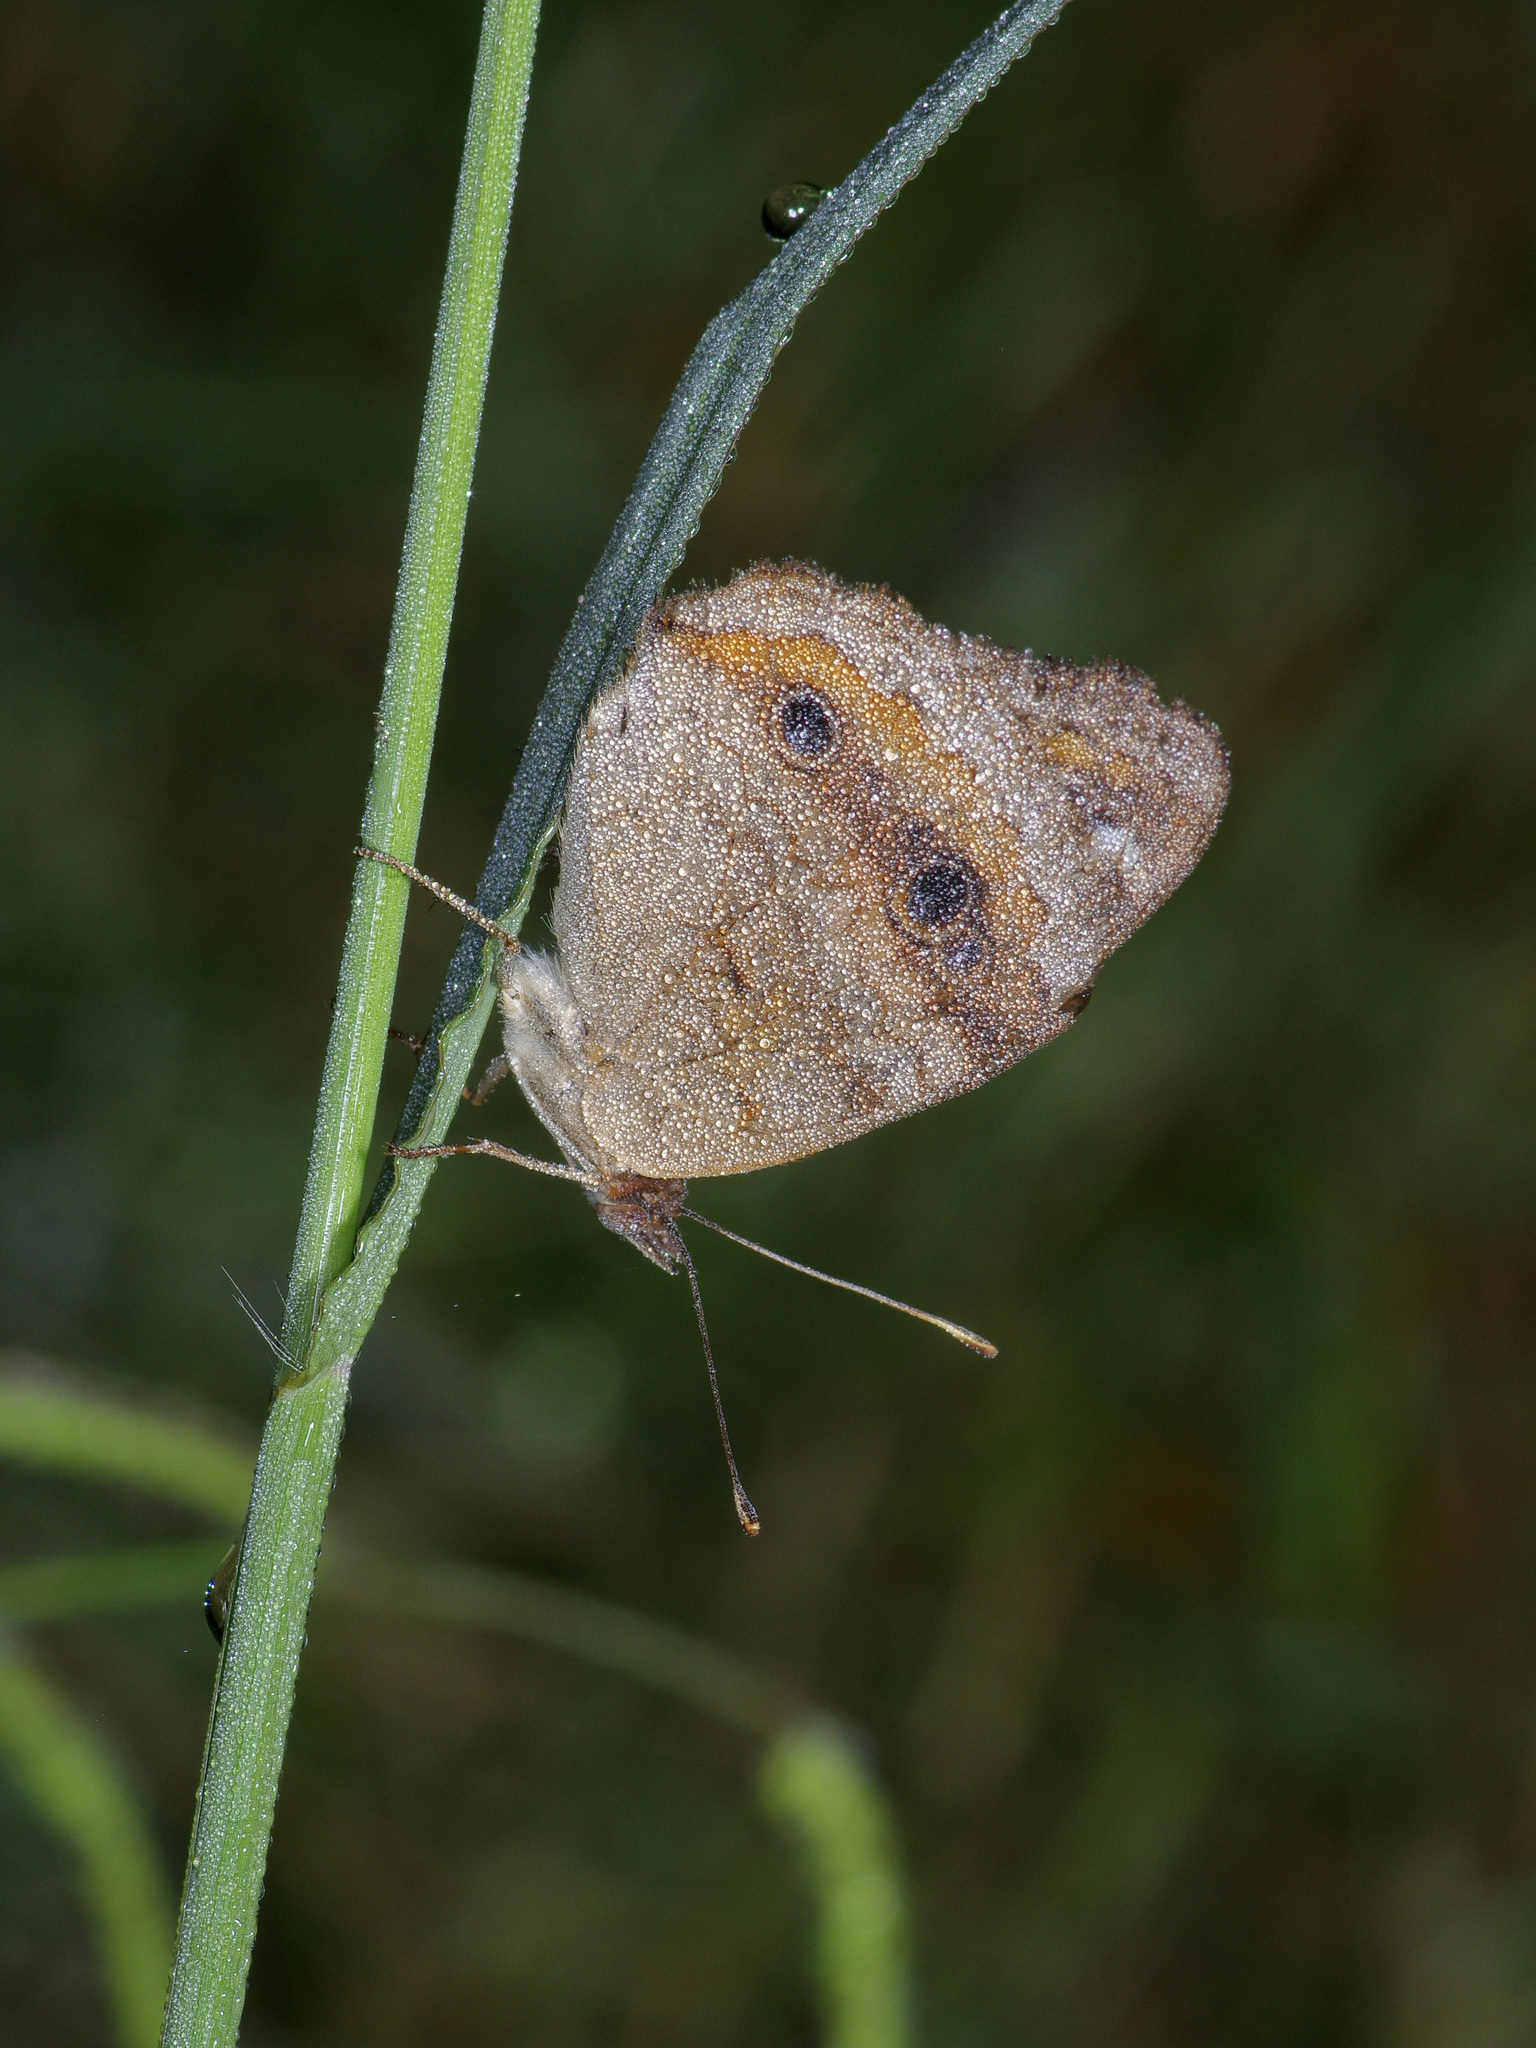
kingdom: Animalia
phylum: Arthropoda
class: Insecta
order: Lepidoptera
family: Nymphalidae
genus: Junonia
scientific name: Junonia coenia
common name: Common buckeye
